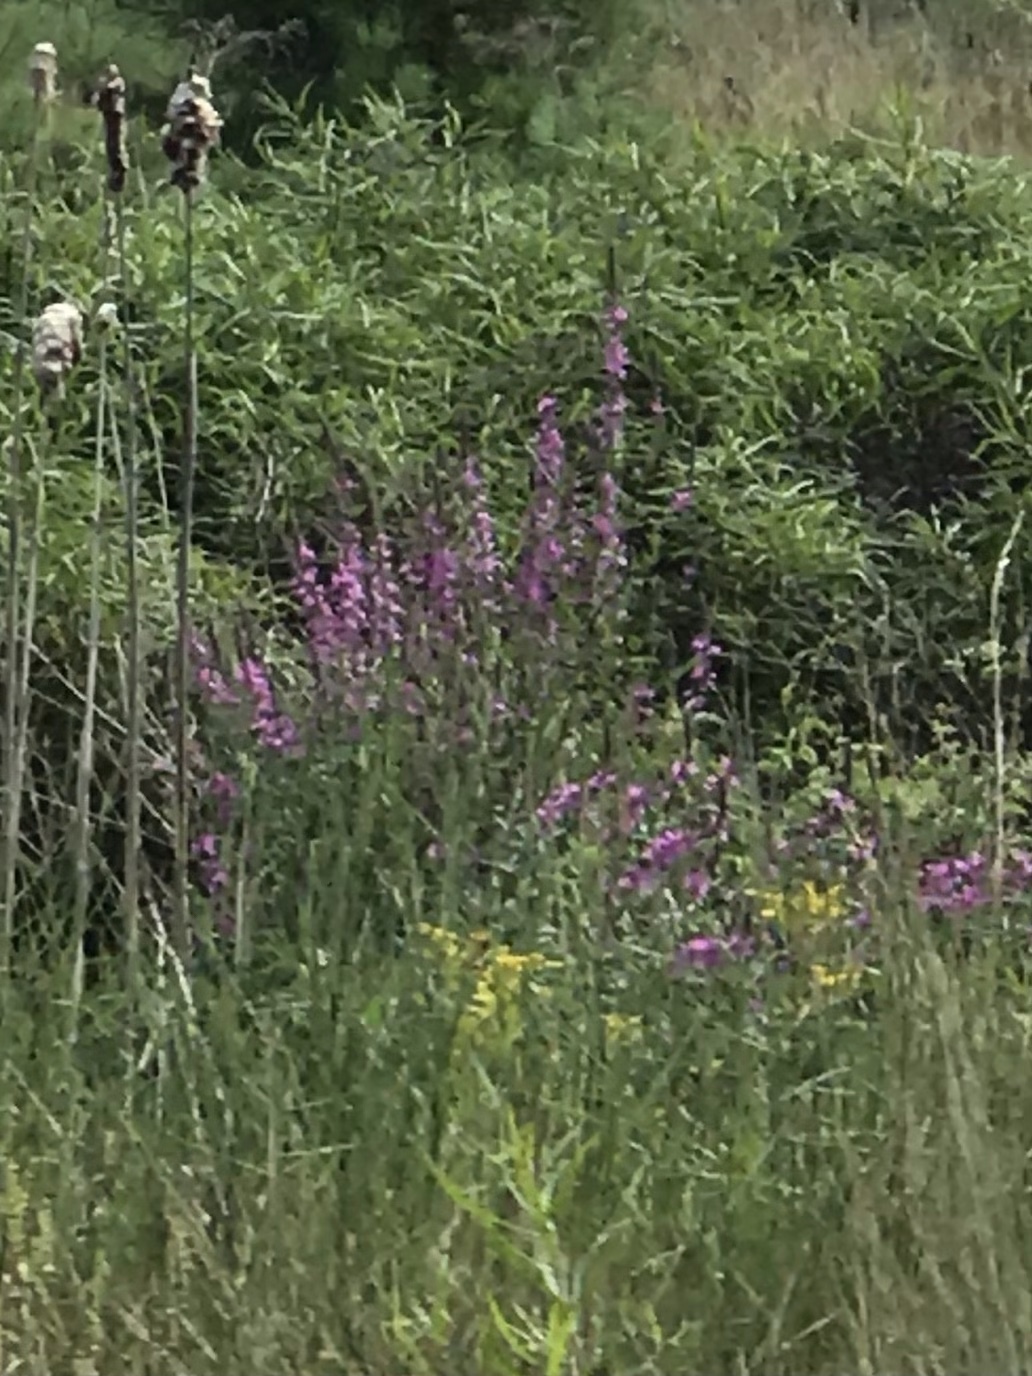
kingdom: Plantae
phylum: Tracheophyta
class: Magnoliopsida
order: Myrtales
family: Lythraceae
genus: Lythrum
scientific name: Lythrum salicaria
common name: Purple loosestrife
